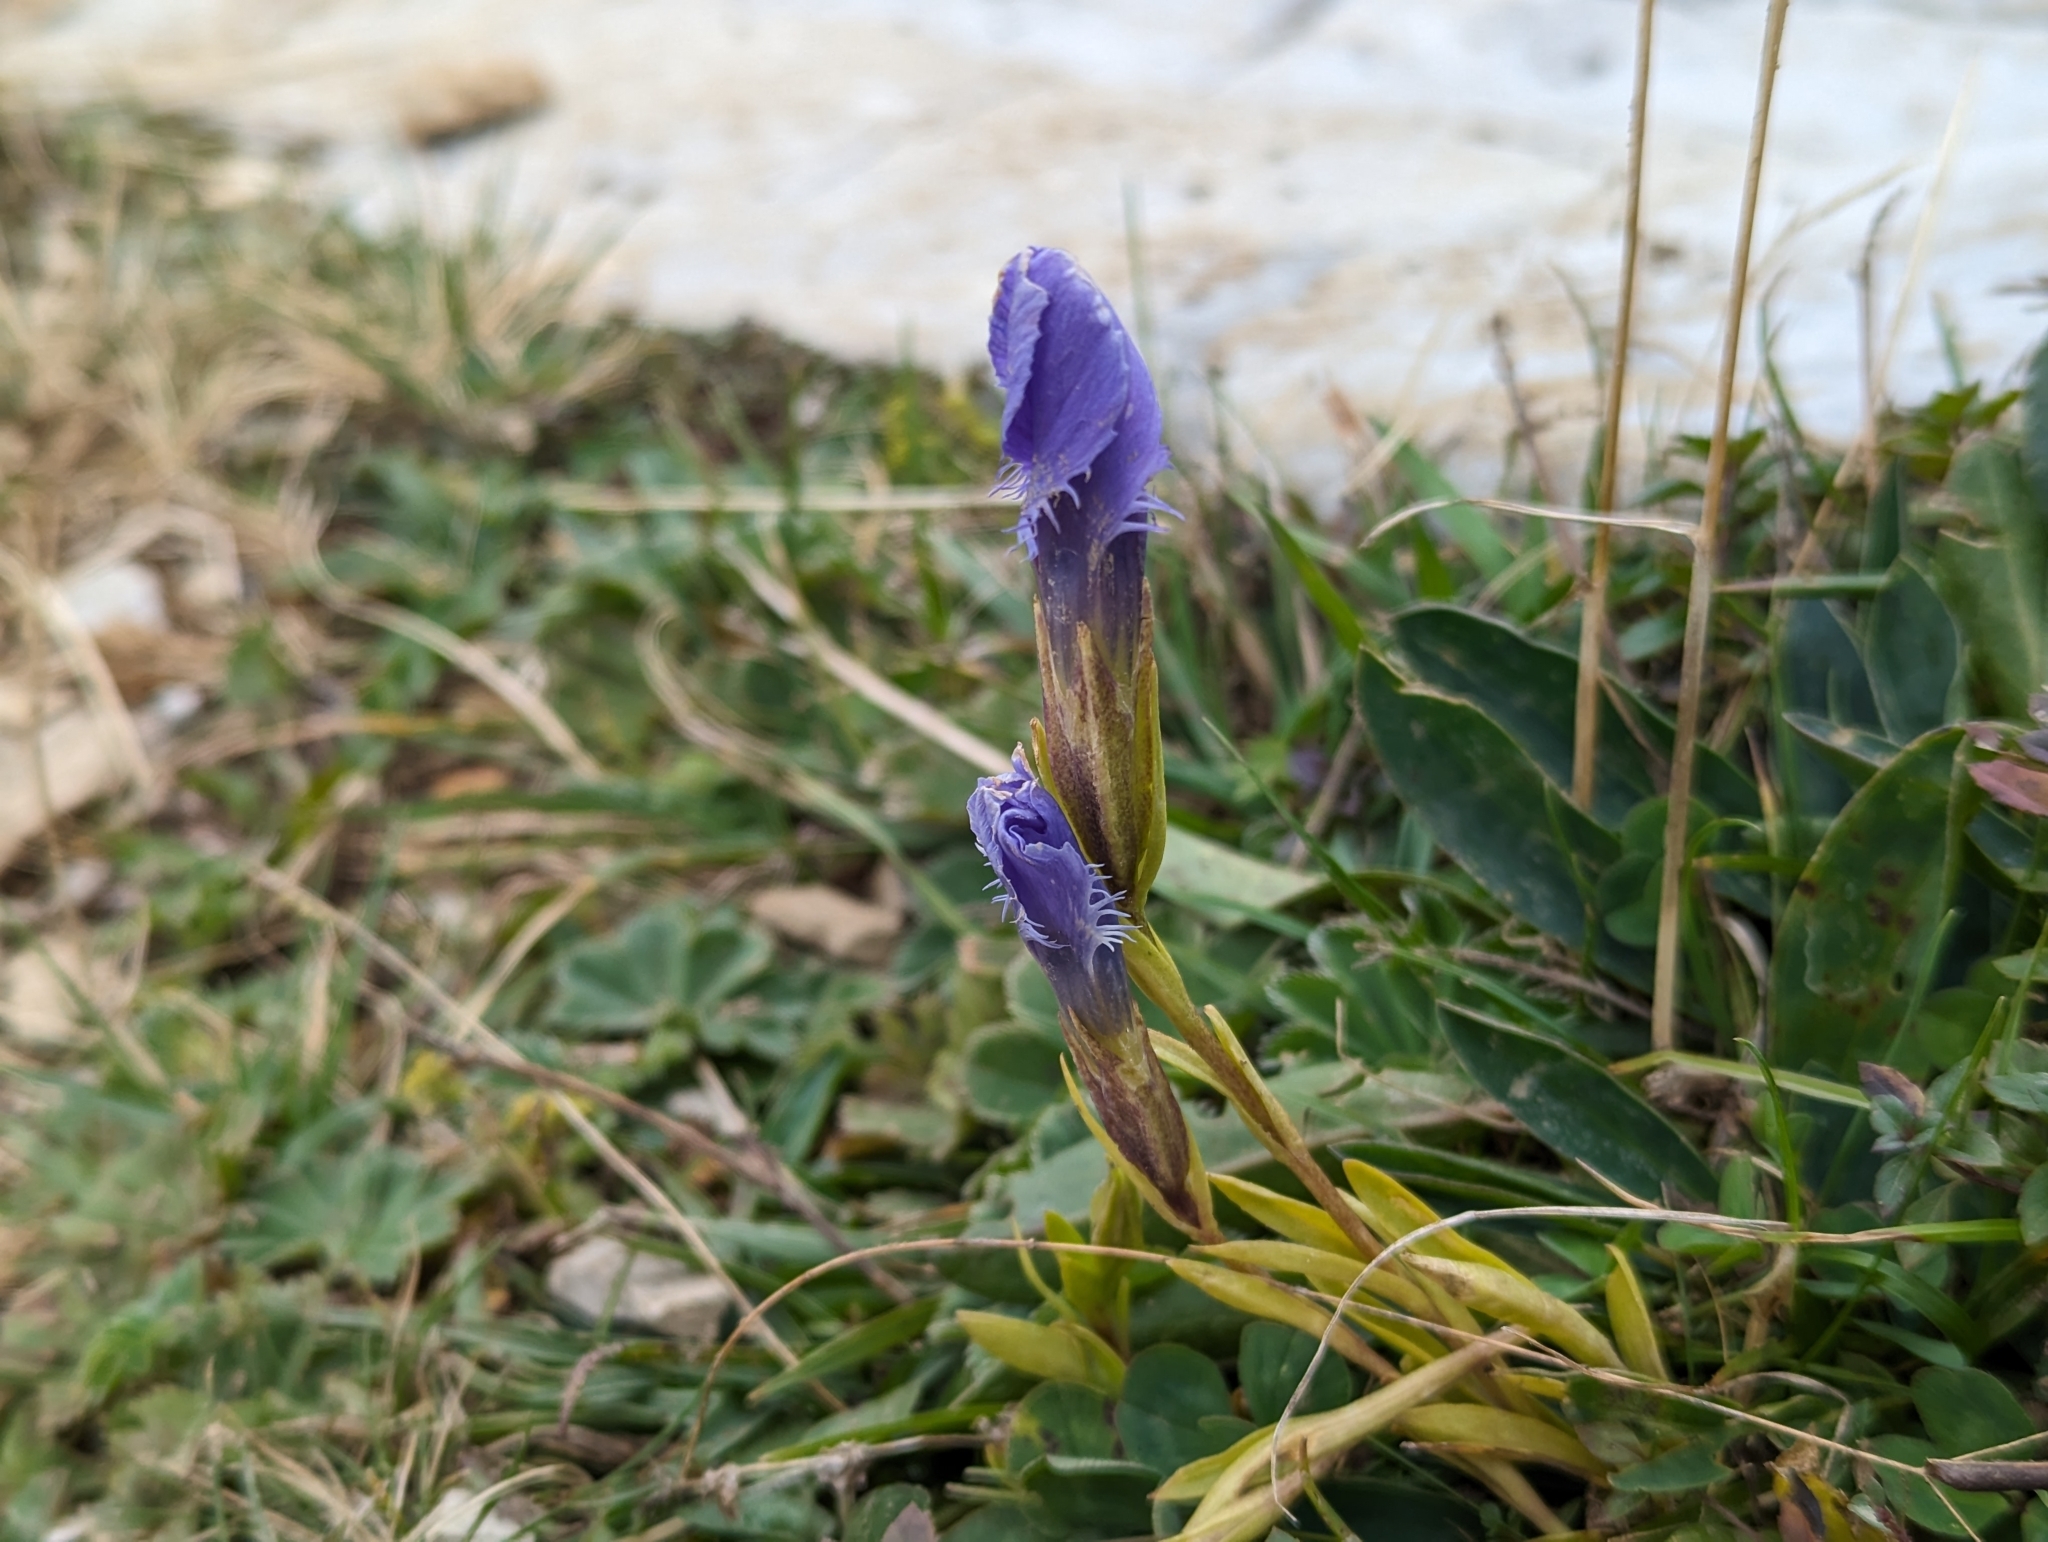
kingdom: Plantae
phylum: Tracheophyta
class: Magnoliopsida
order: Gentianales
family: Gentianaceae
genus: Gentianopsis
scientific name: Gentianopsis ciliata
